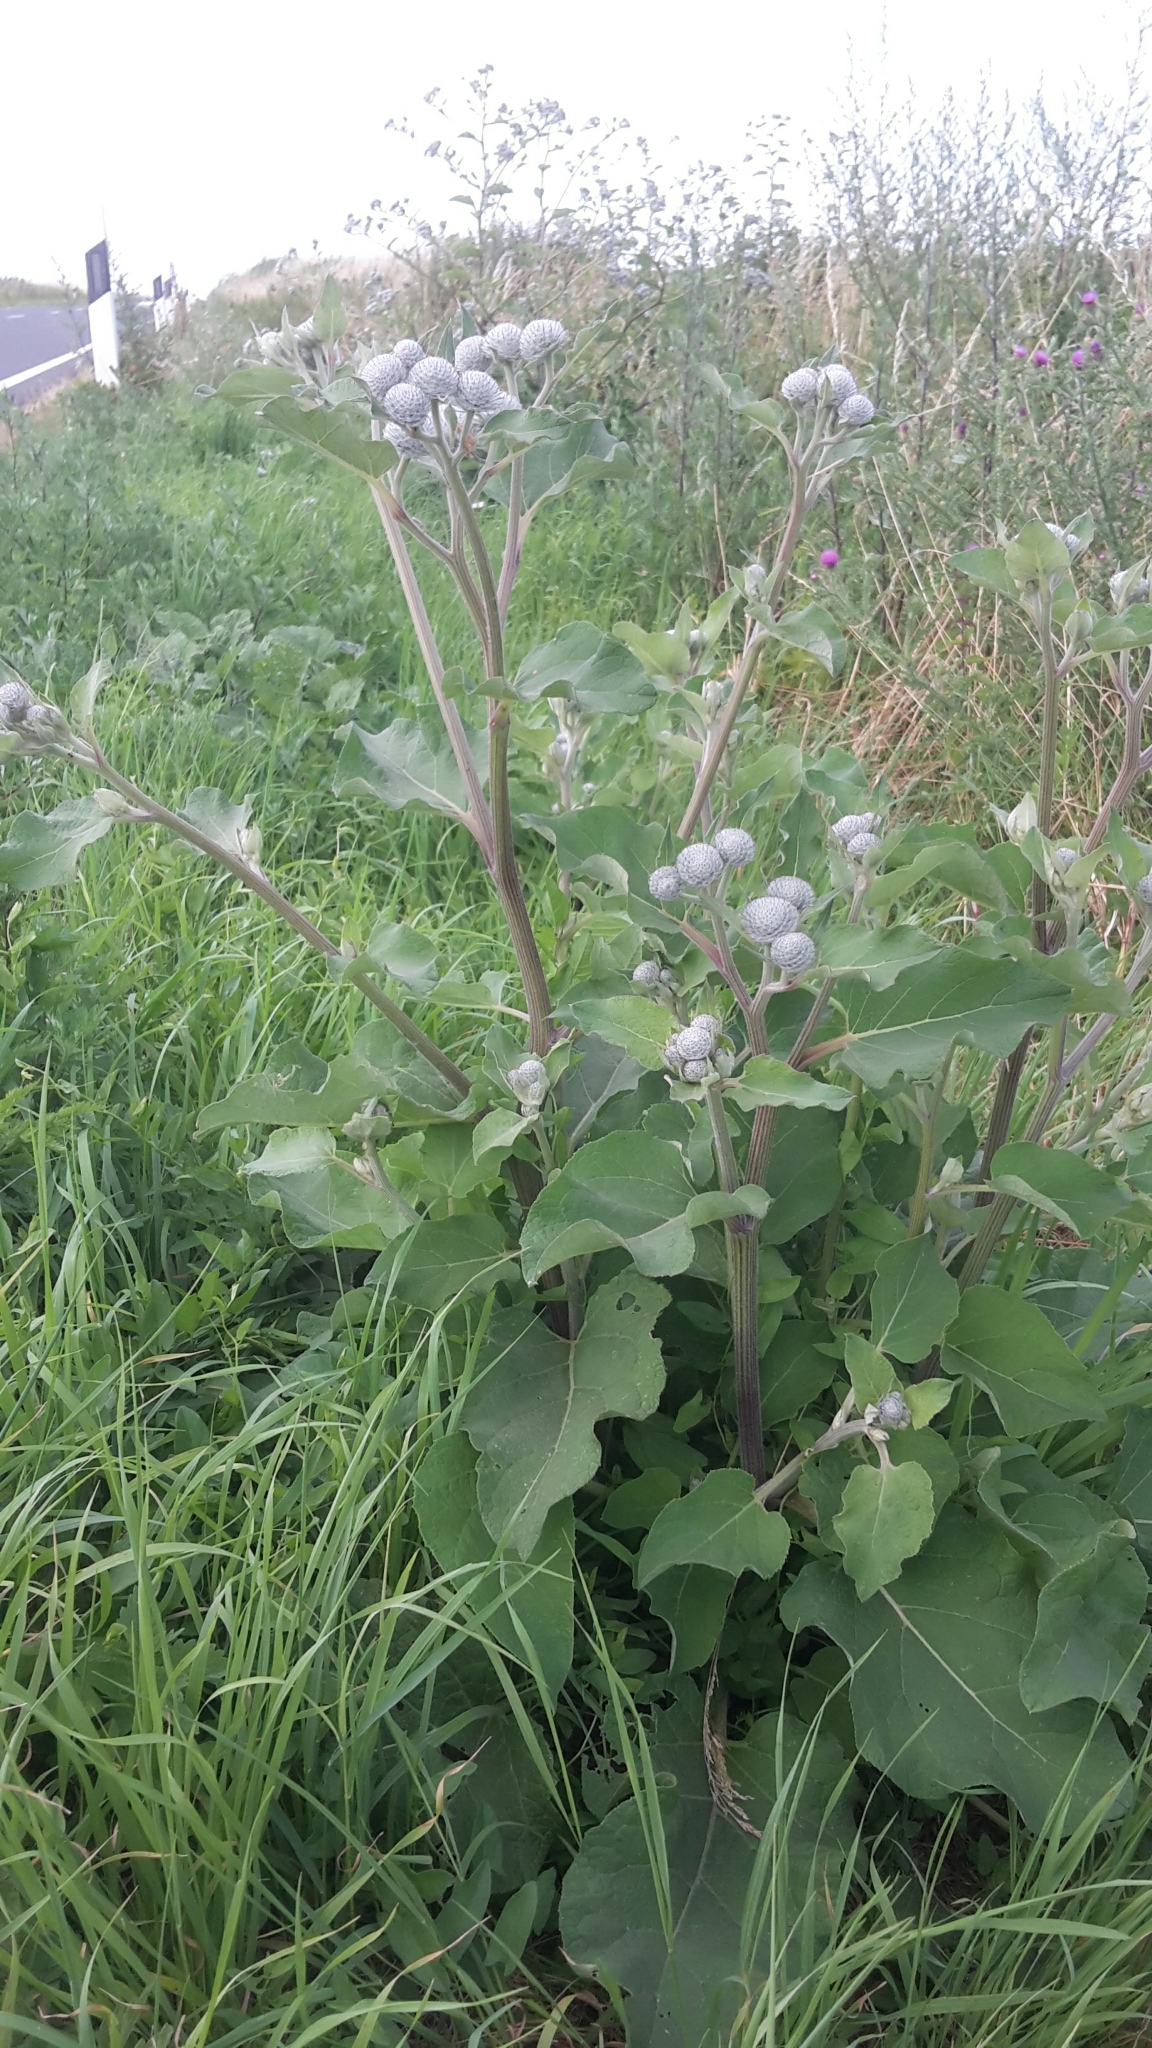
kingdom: Plantae
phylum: Tracheophyta
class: Magnoliopsida
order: Asterales
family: Asteraceae
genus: Arctium
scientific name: Arctium tomentosum
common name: Woolly burdock
